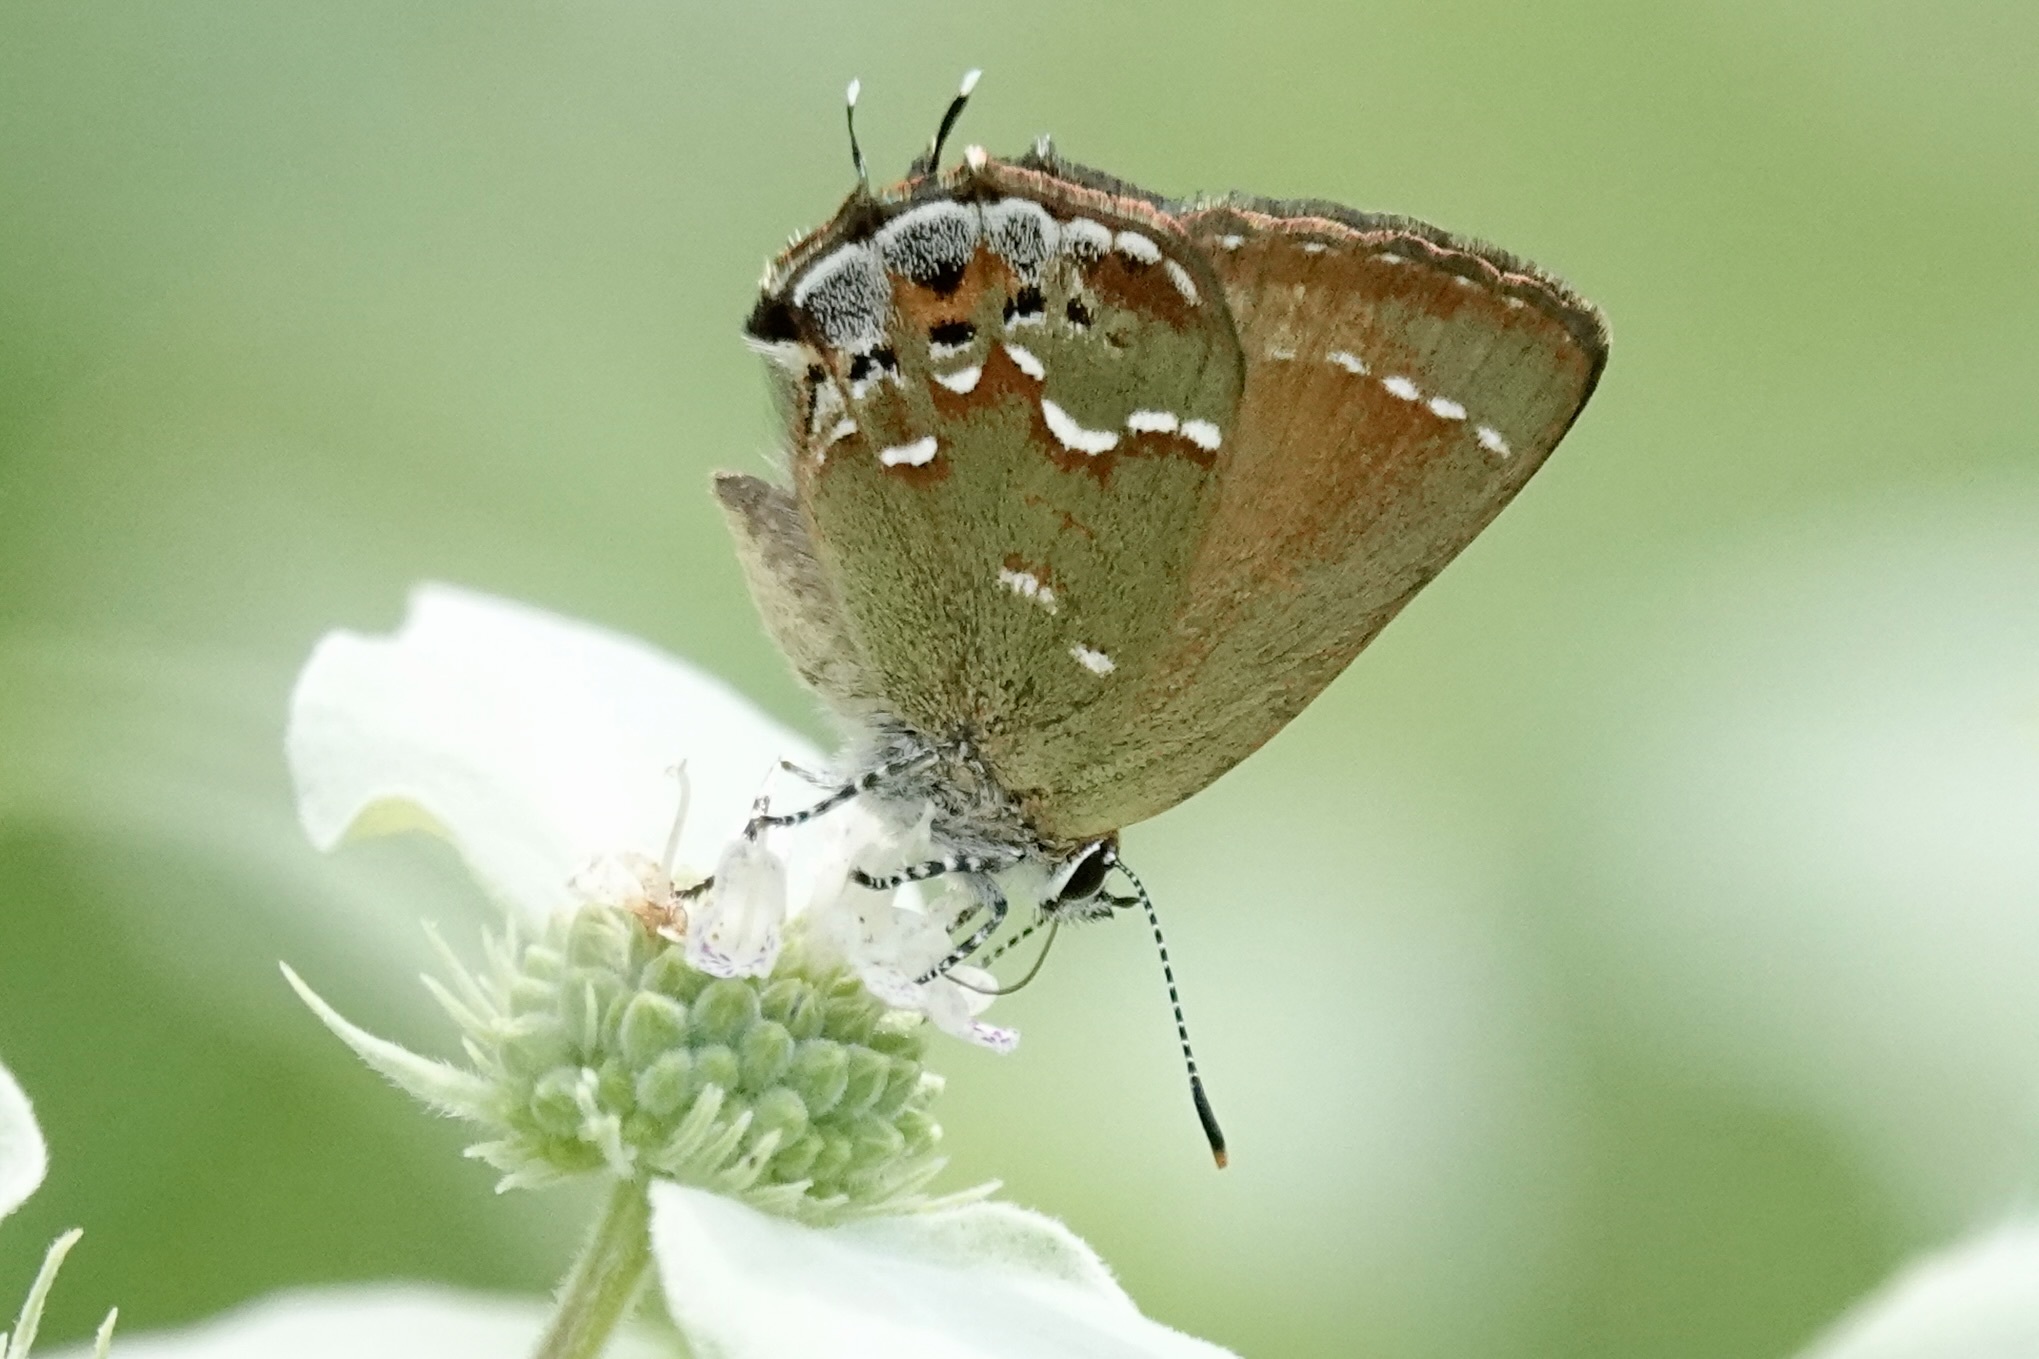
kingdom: Animalia
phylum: Arthropoda
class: Insecta
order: Lepidoptera
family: Lycaenidae
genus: Mitoura
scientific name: Mitoura gryneus
